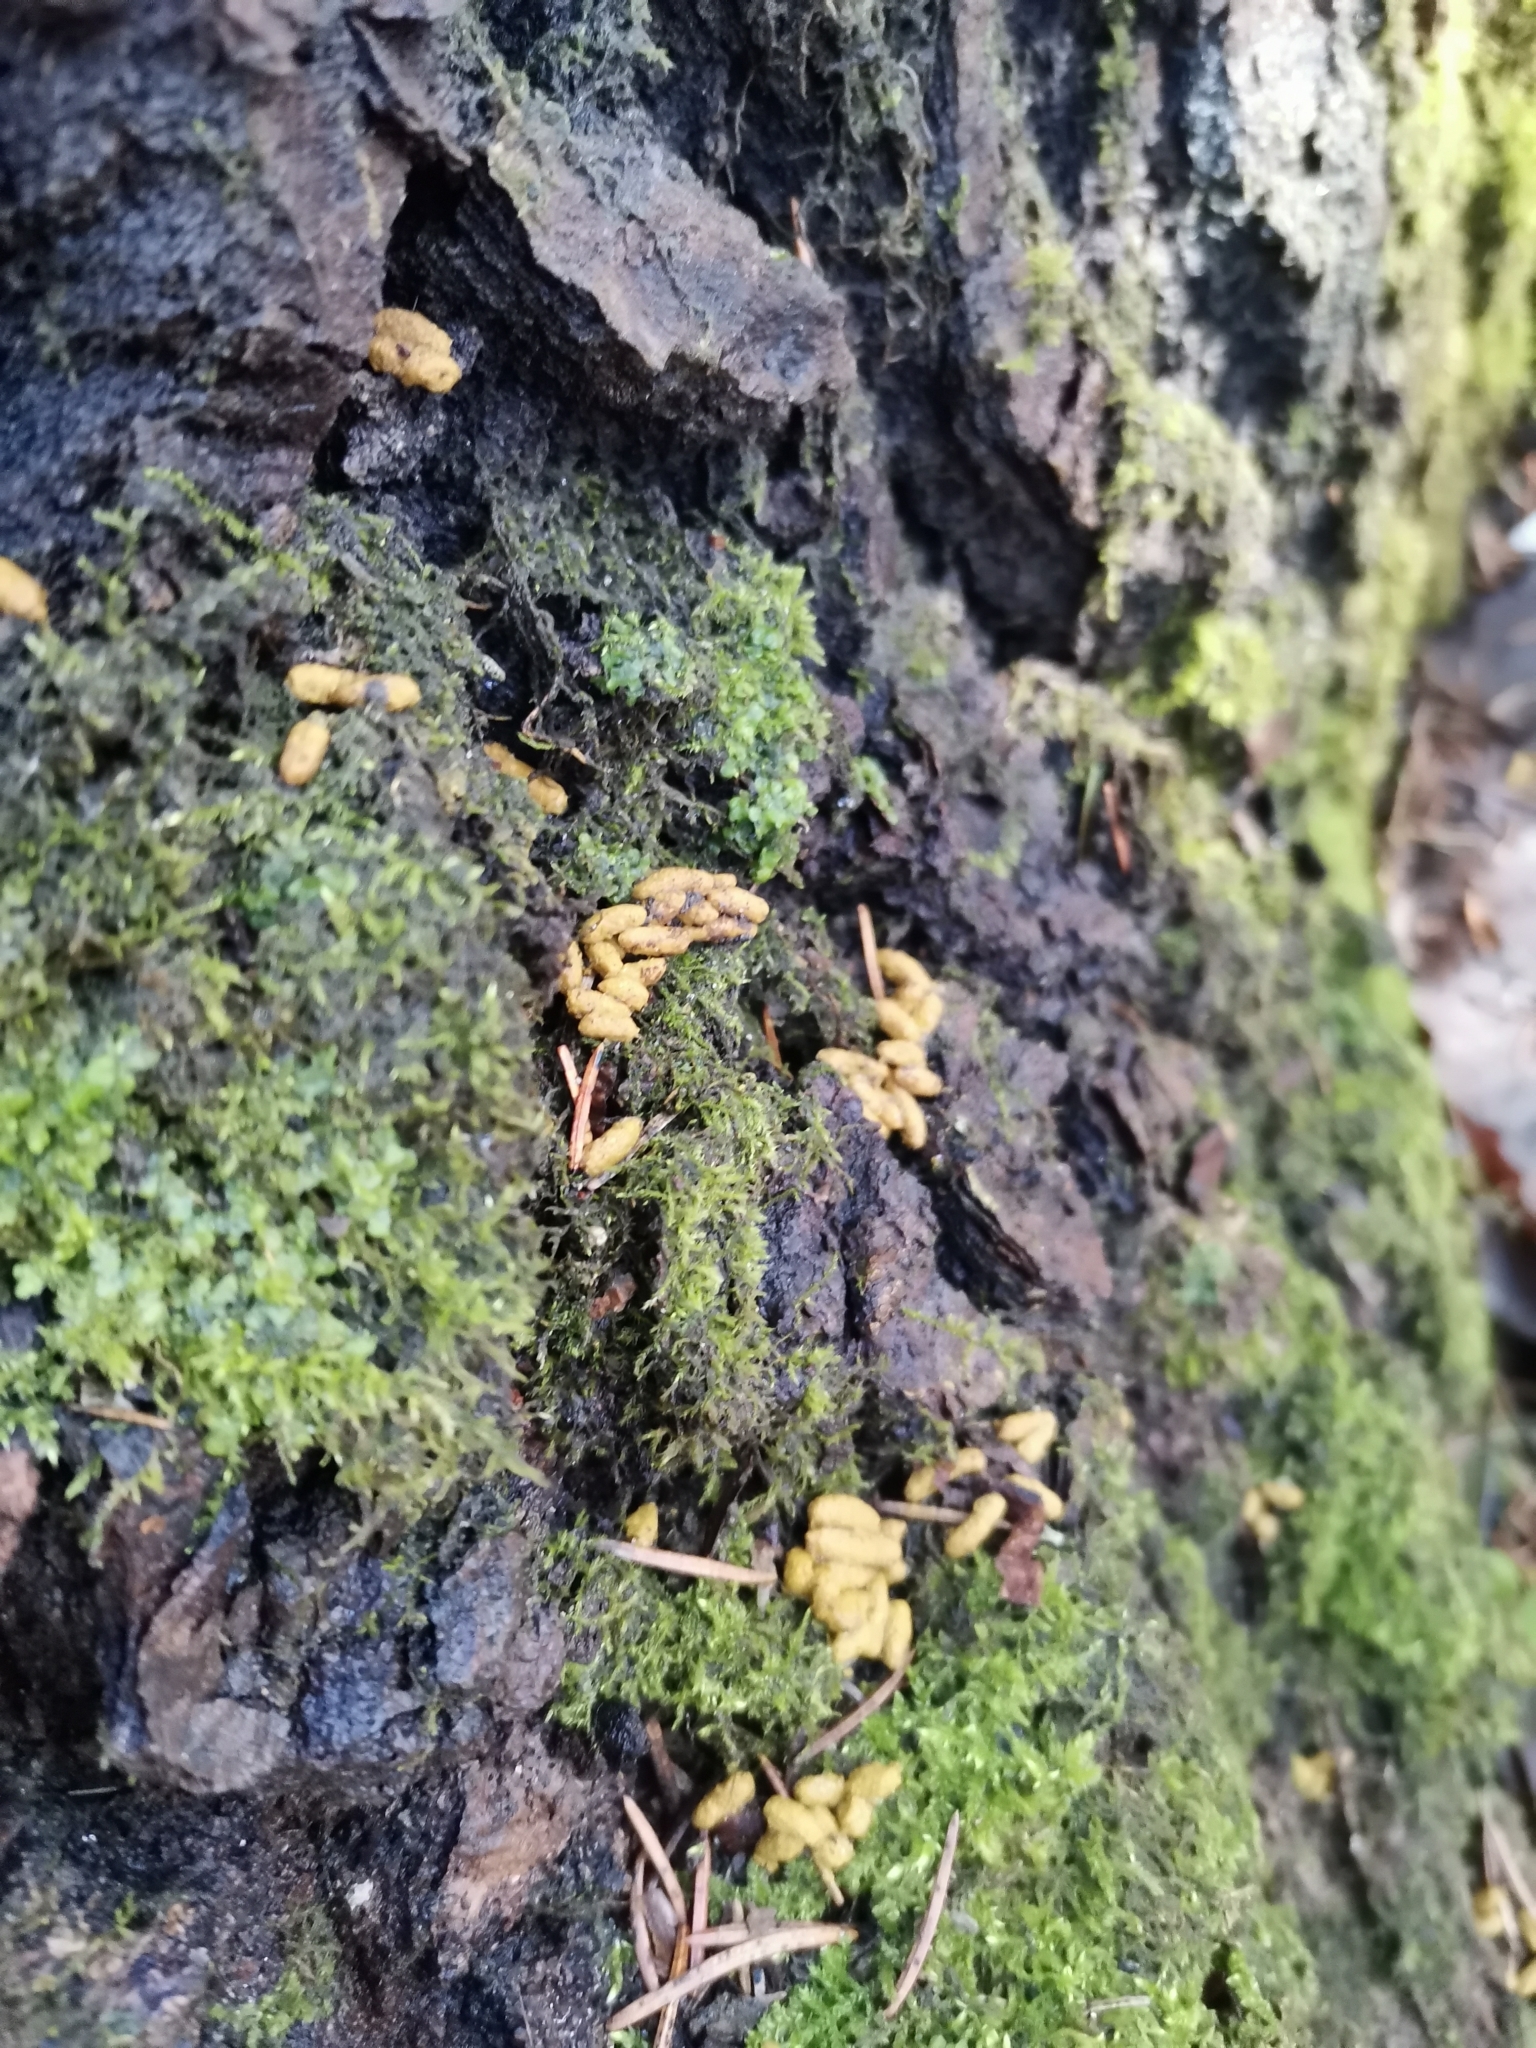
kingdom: Animalia
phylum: Chordata
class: Mammalia
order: Rodentia
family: Sciuridae
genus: Pteromys
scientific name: Pteromys volans
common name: Siberian flying squirrel
